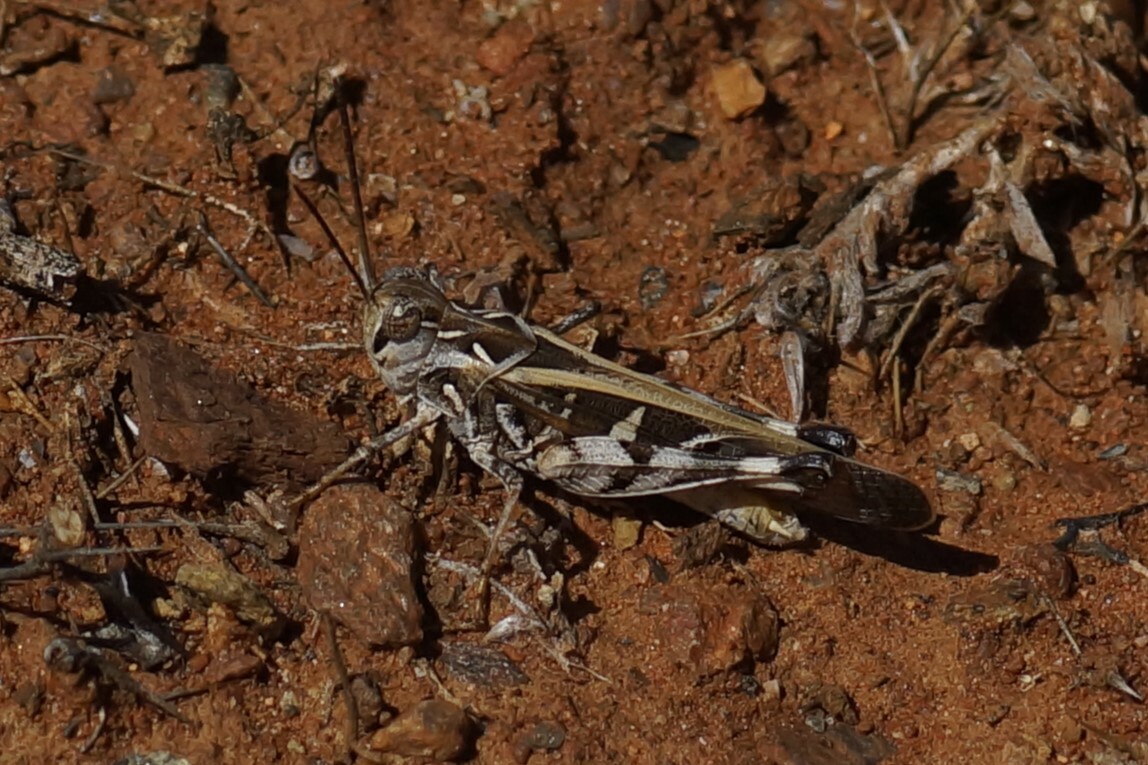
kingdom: Animalia
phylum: Arthropoda
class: Insecta
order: Orthoptera
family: Acrididae
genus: Oedaleus
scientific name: Oedaleus australis
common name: Eastern oedaleus
